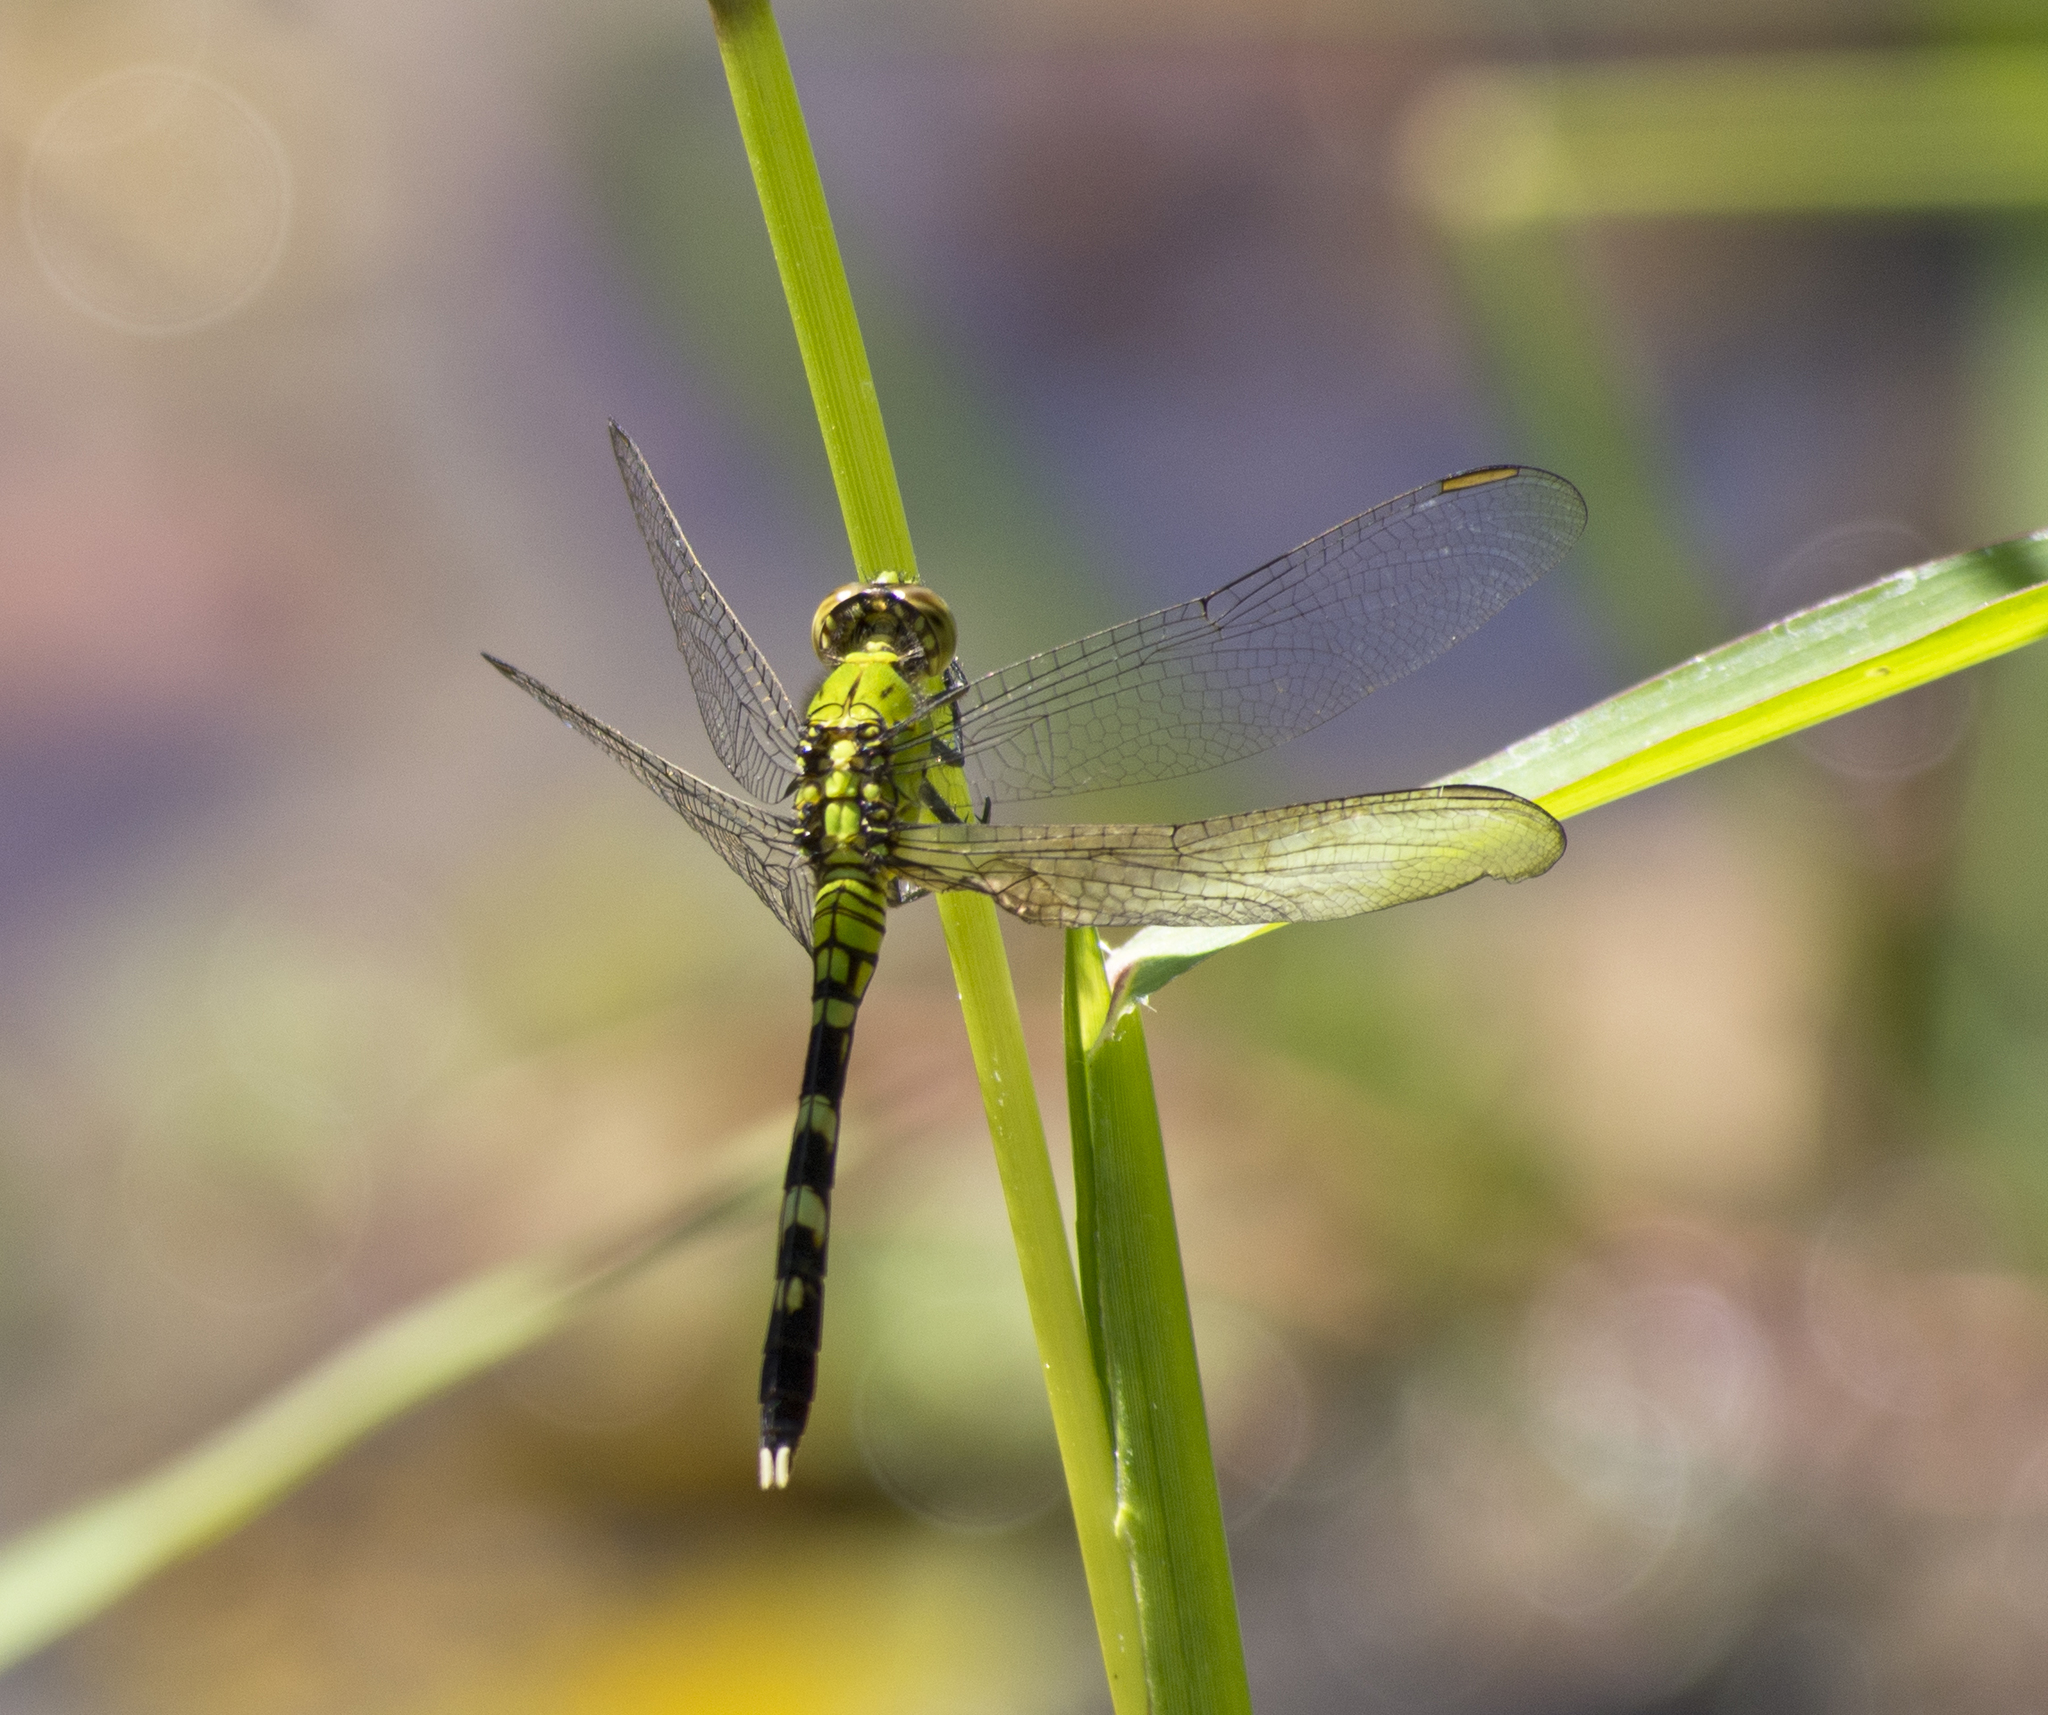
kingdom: Animalia
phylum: Arthropoda
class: Insecta
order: Odonata
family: Libellulidae
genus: Erythemis
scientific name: Erythemis simplicicollis
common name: Eastern pondhawk
